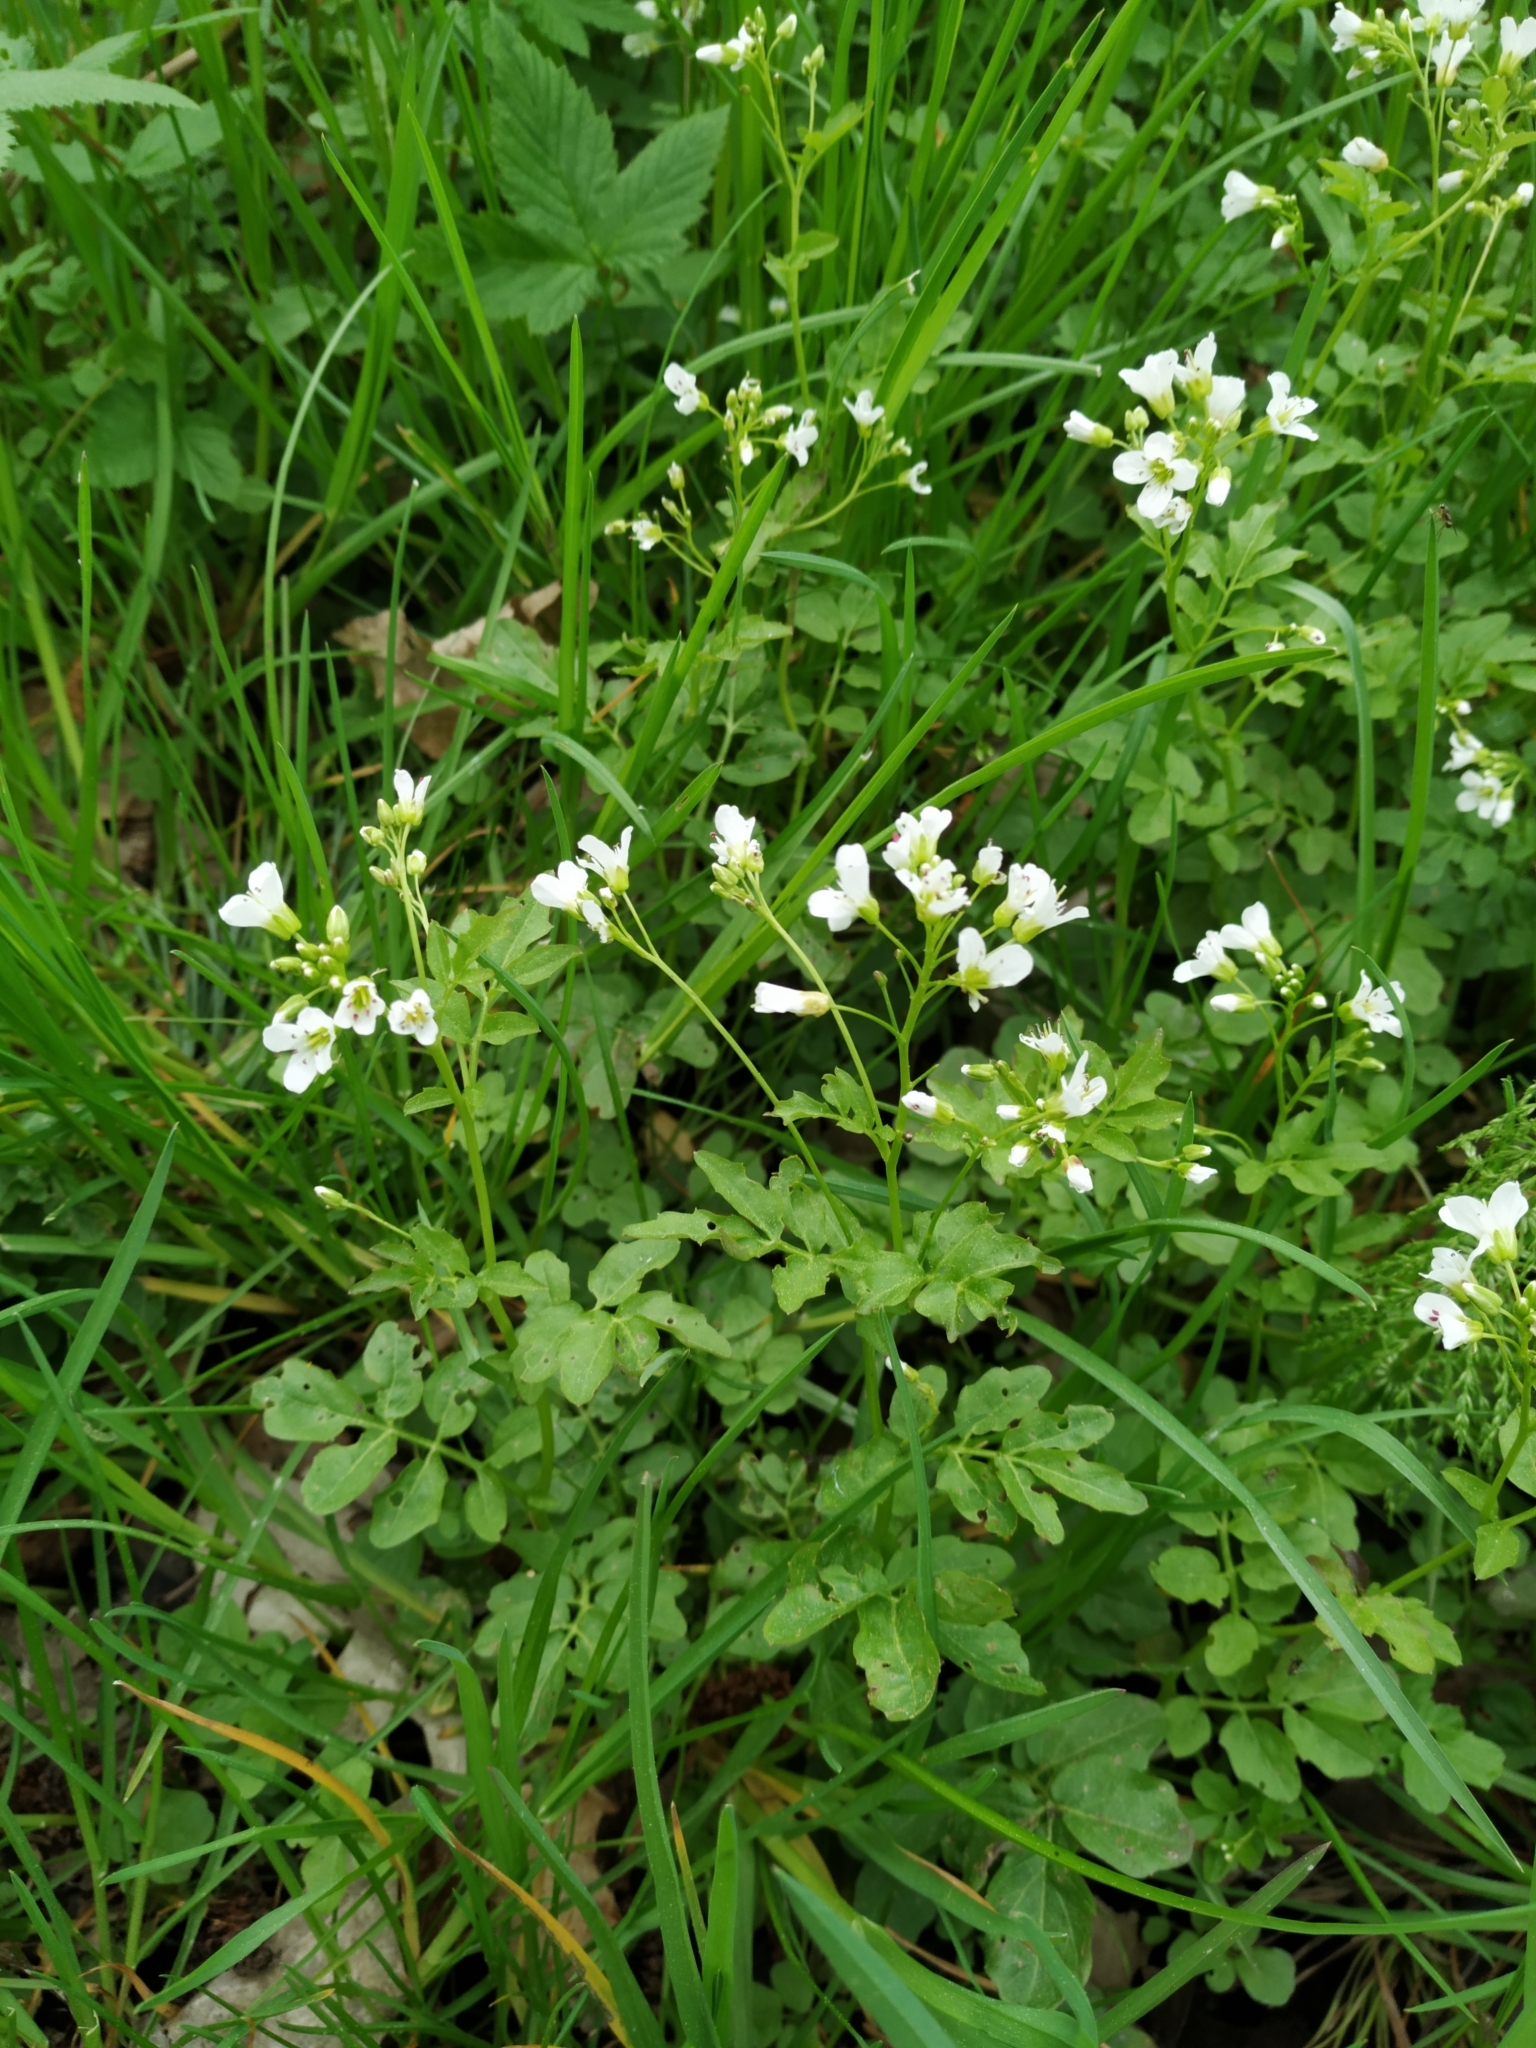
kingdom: Plantae
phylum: Tracheophyta
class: Magnoliopsida
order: Brassicales
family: Brassicaceae
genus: Cardamine
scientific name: Cardamine amara
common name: Large bitter-cress
